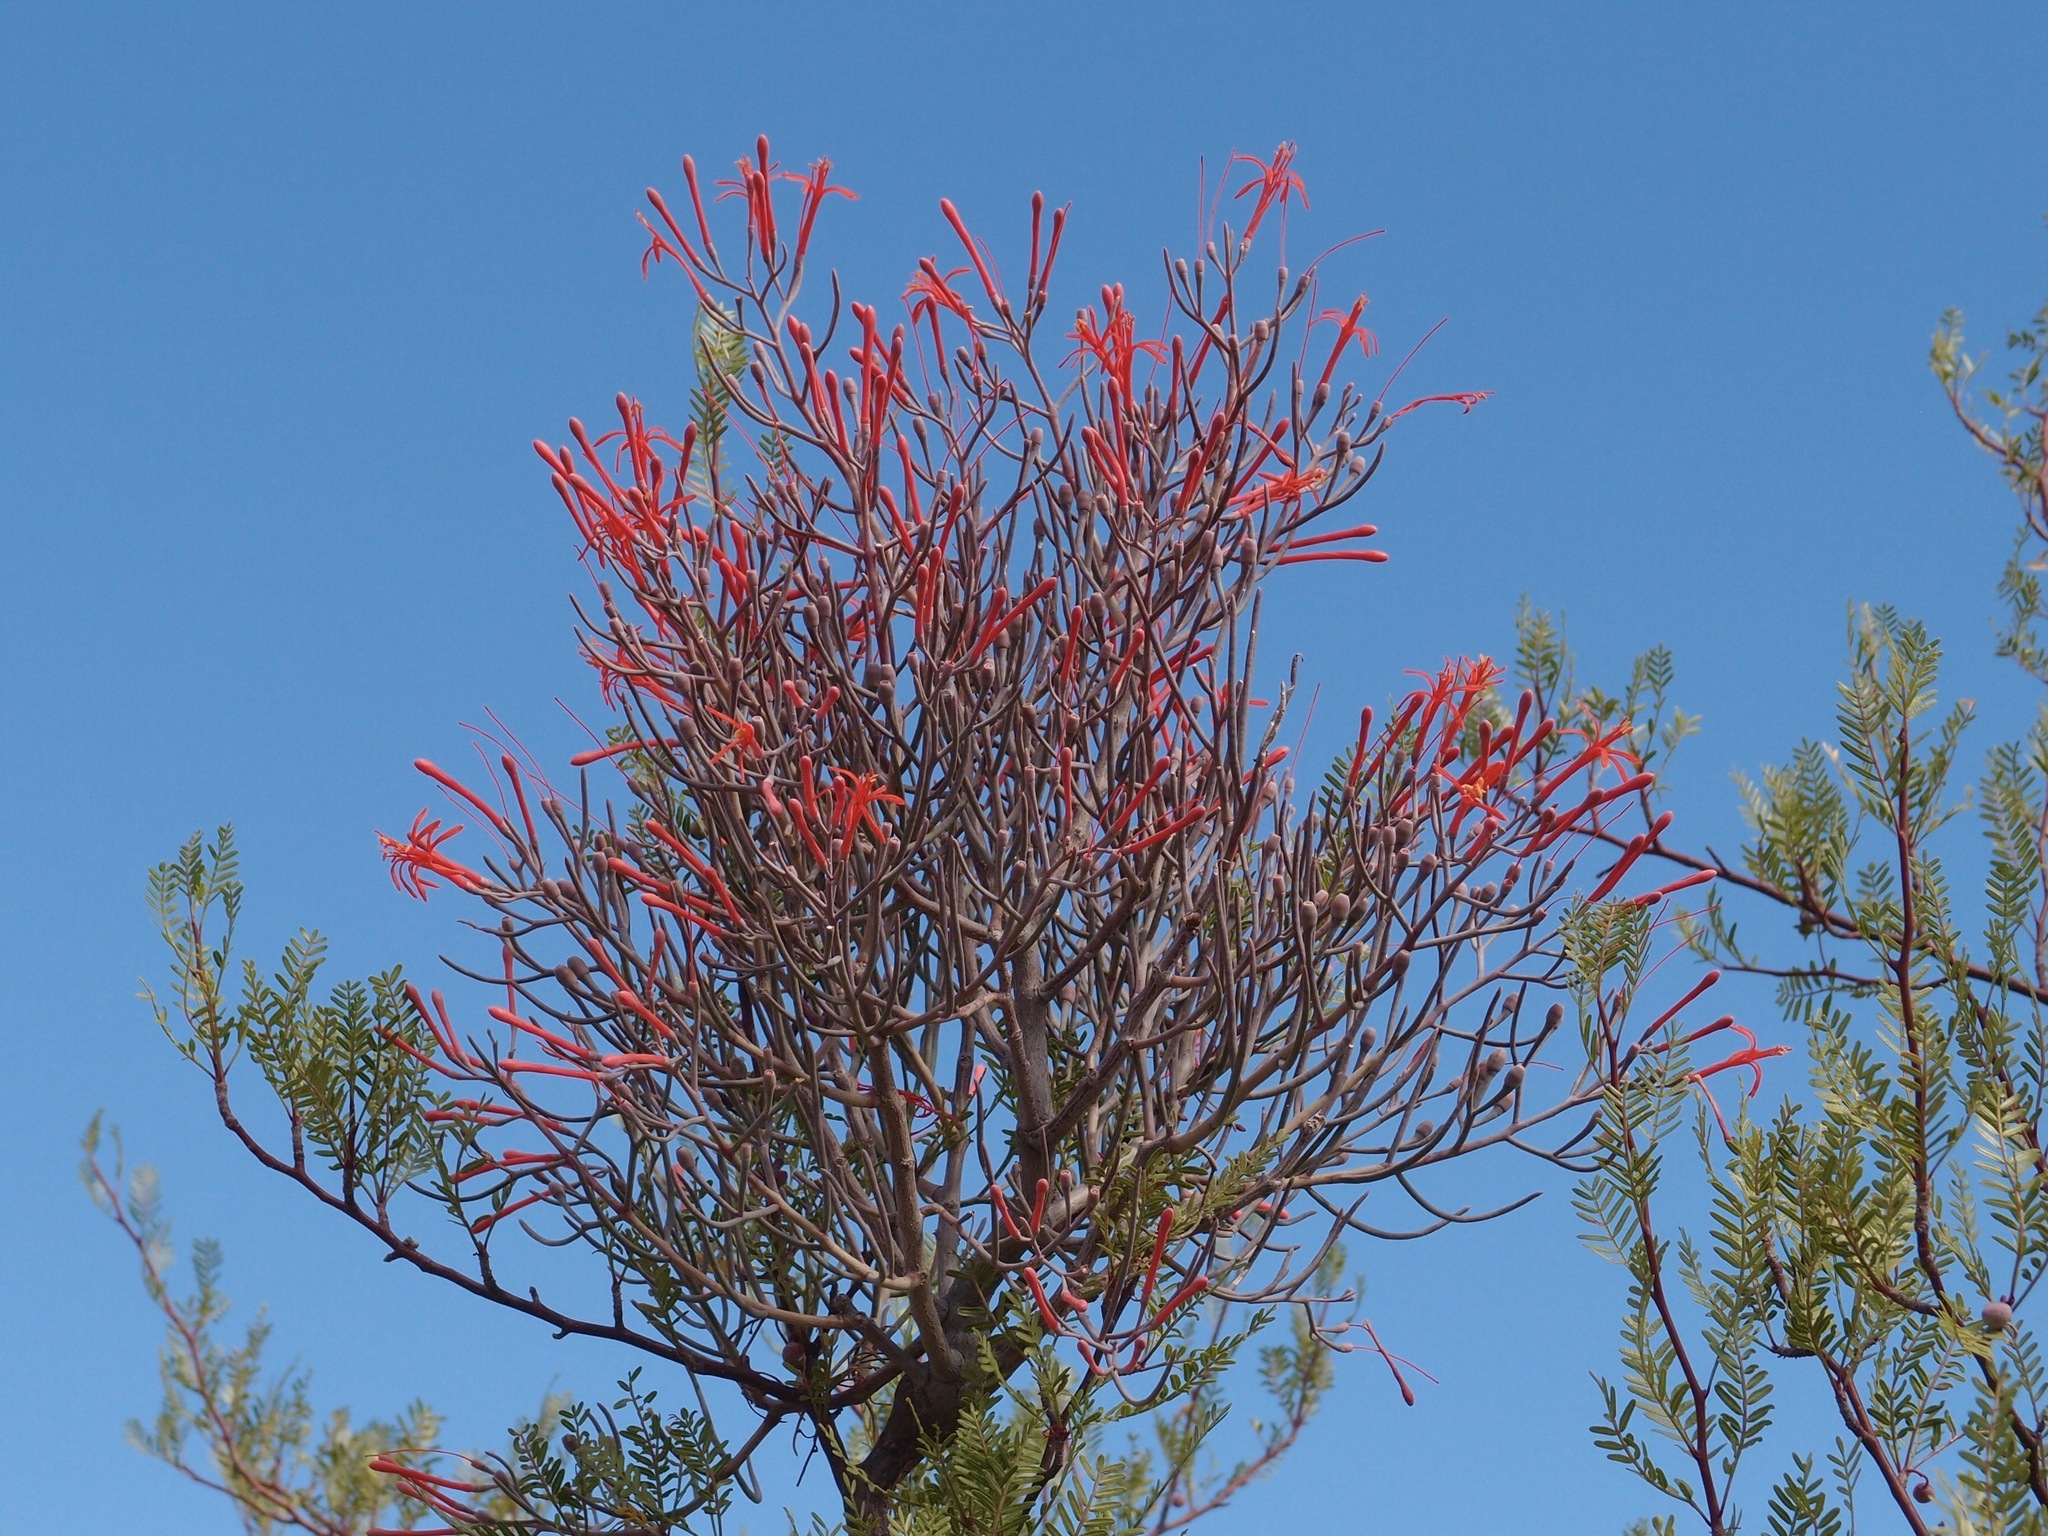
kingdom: Plantae
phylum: Tracheophyta
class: Magnoliopsida
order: Santalales
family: Loranthaceae
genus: Psittacanthus
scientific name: Psittacanthus sonorae
